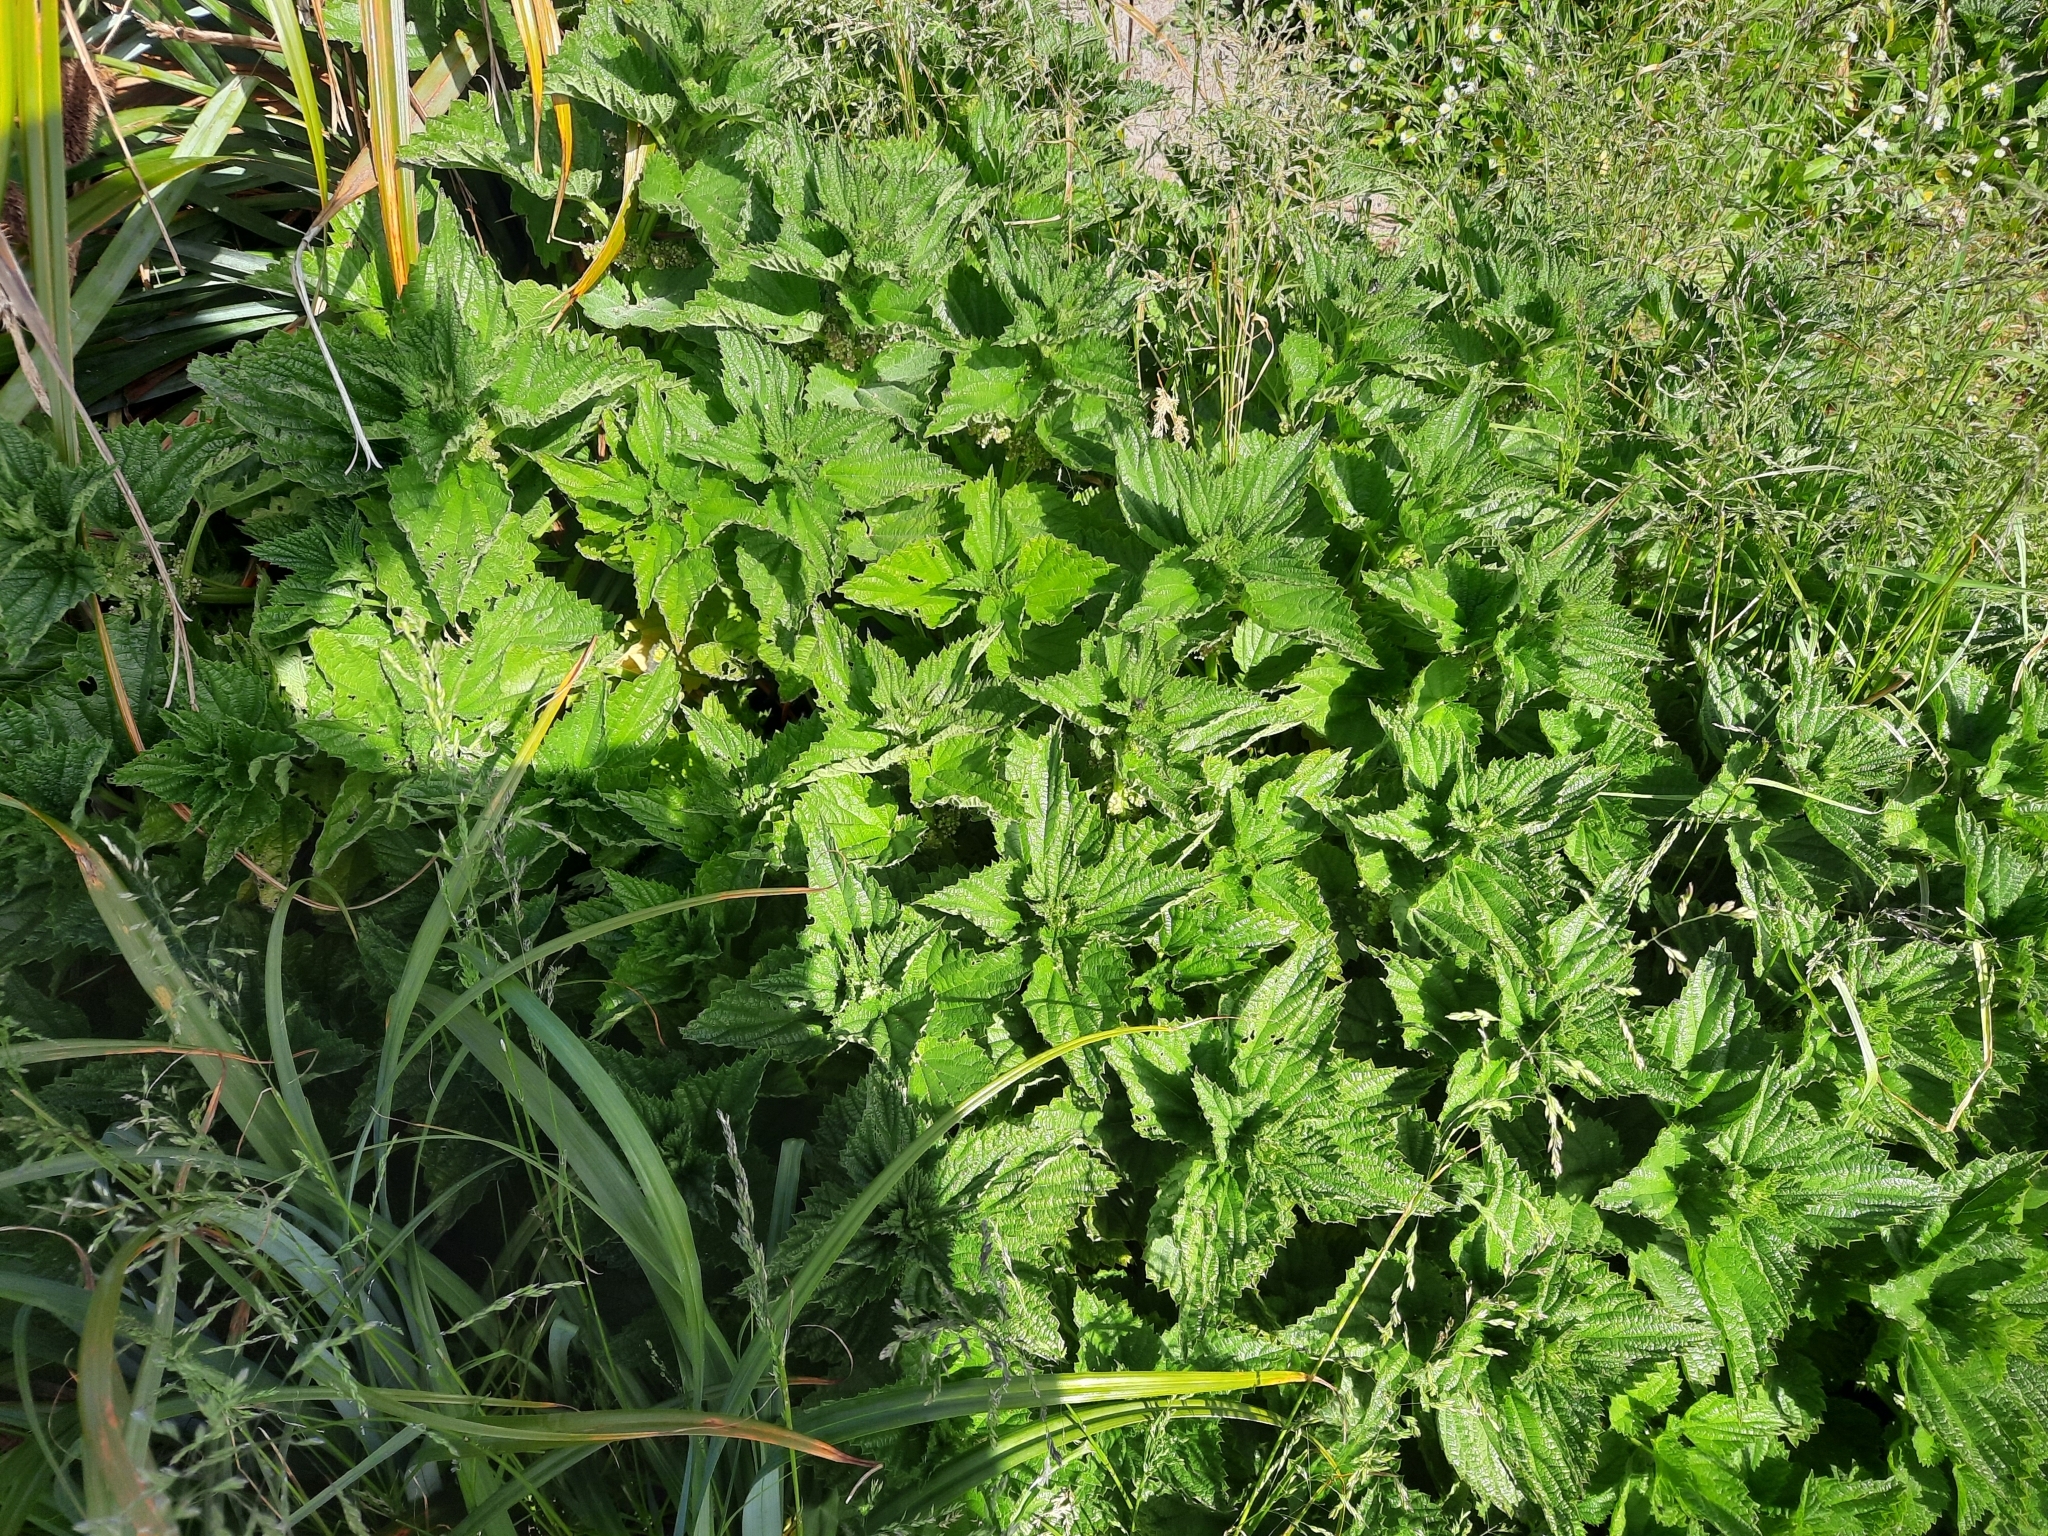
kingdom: Plantae
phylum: Tracheophyta
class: Magnoliopsida
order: Rosales
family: Urticaceae
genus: Urtica
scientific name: Urtica australis
